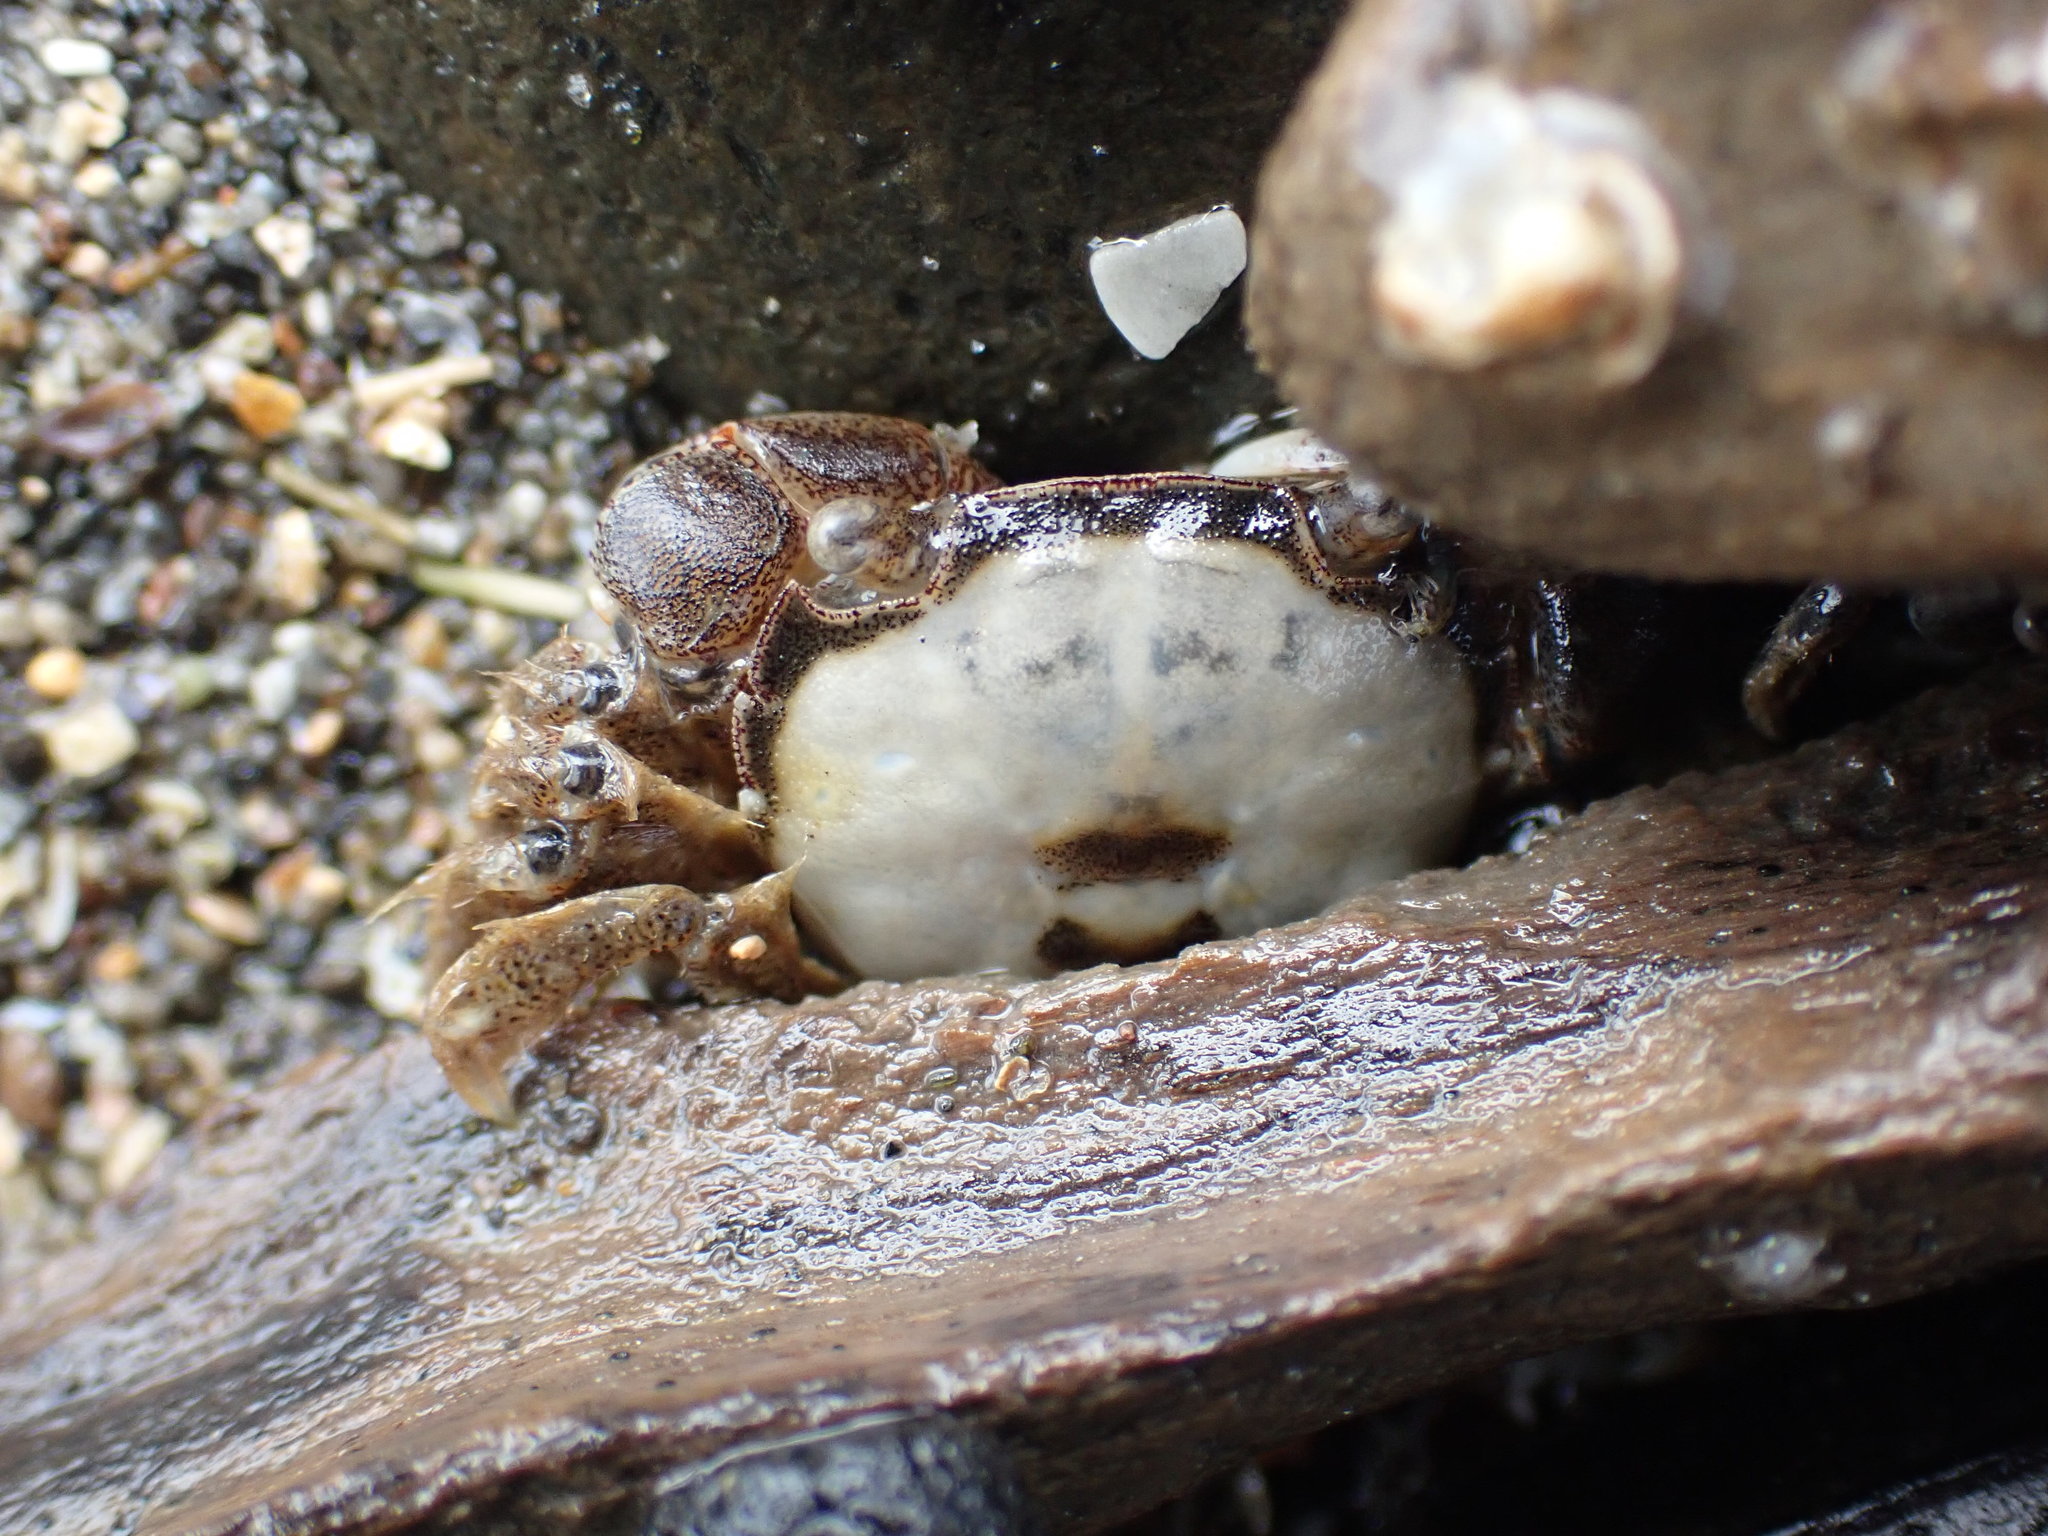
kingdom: Animalia
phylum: Arthropoda
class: Malacostraca
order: Decapoda
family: Varunidae
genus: Hemigrapsus
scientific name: Hemigrapsus crenulatus
